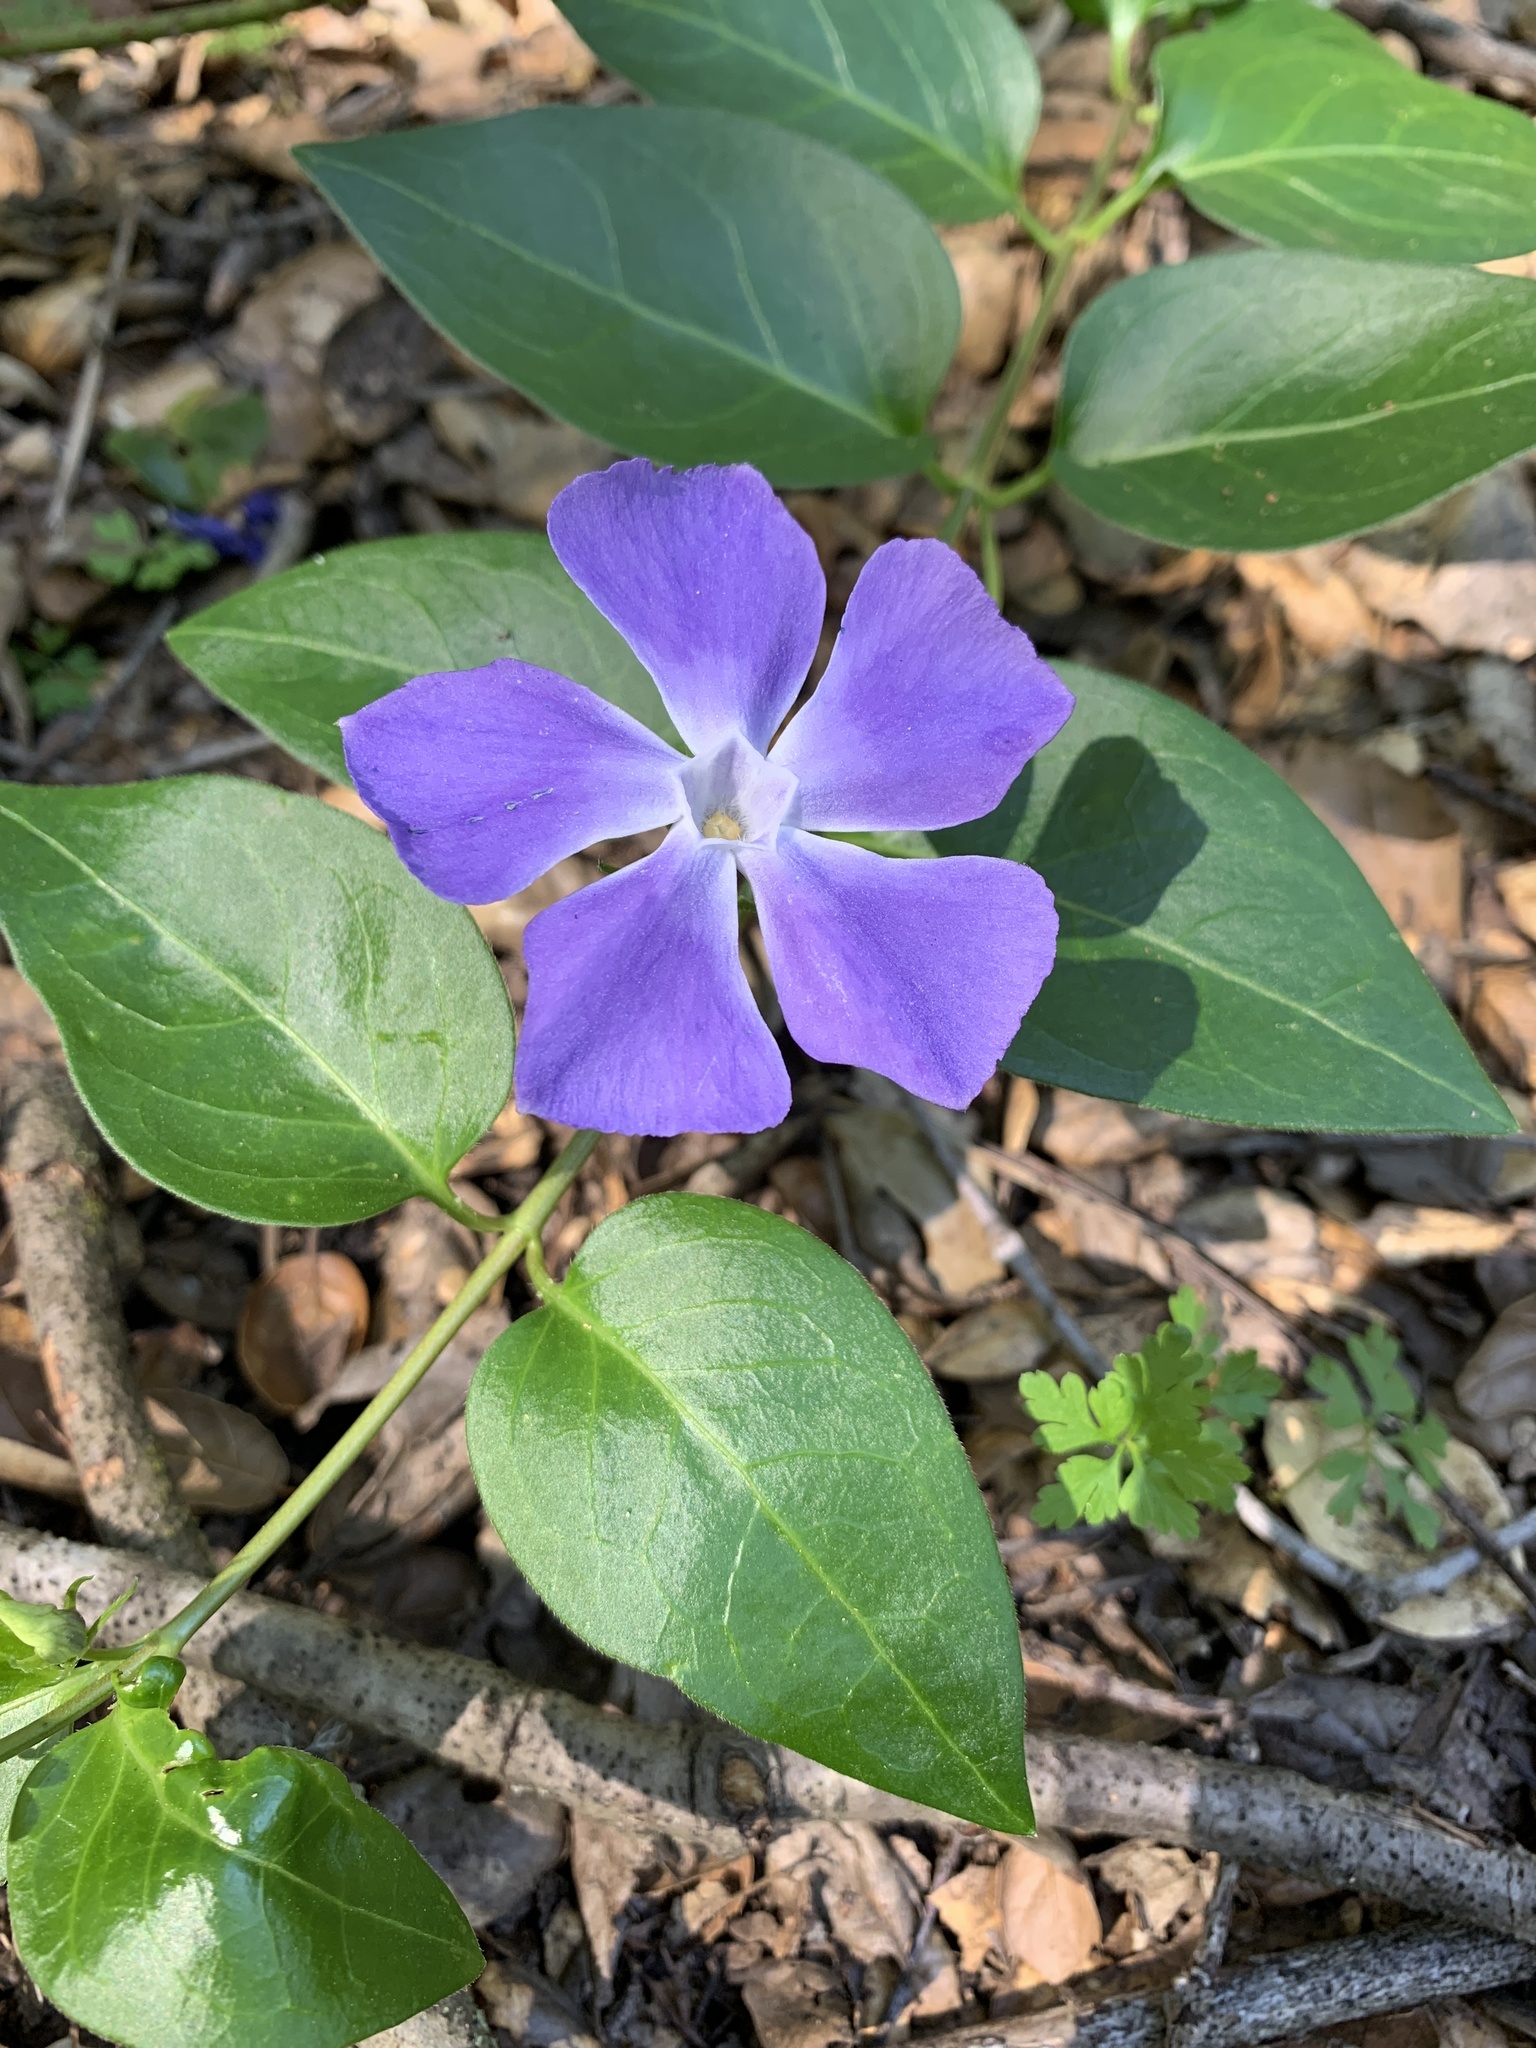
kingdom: Plantae
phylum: Tracheophyta
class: Magnoliopsida
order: Gentianales
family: Apocynaceae
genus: Vinca
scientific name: Vinca major
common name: Greater periwinkle
